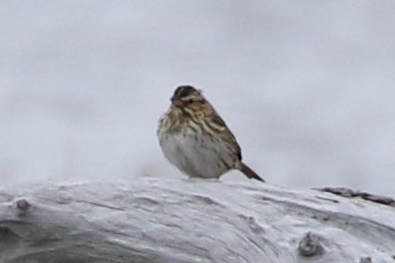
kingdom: Animalia
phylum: Chordata
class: Aves
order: Passeriformes
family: Passerellidae
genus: Passerculus
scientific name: Passerculus sandwichensis
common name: Savannah sparrow
